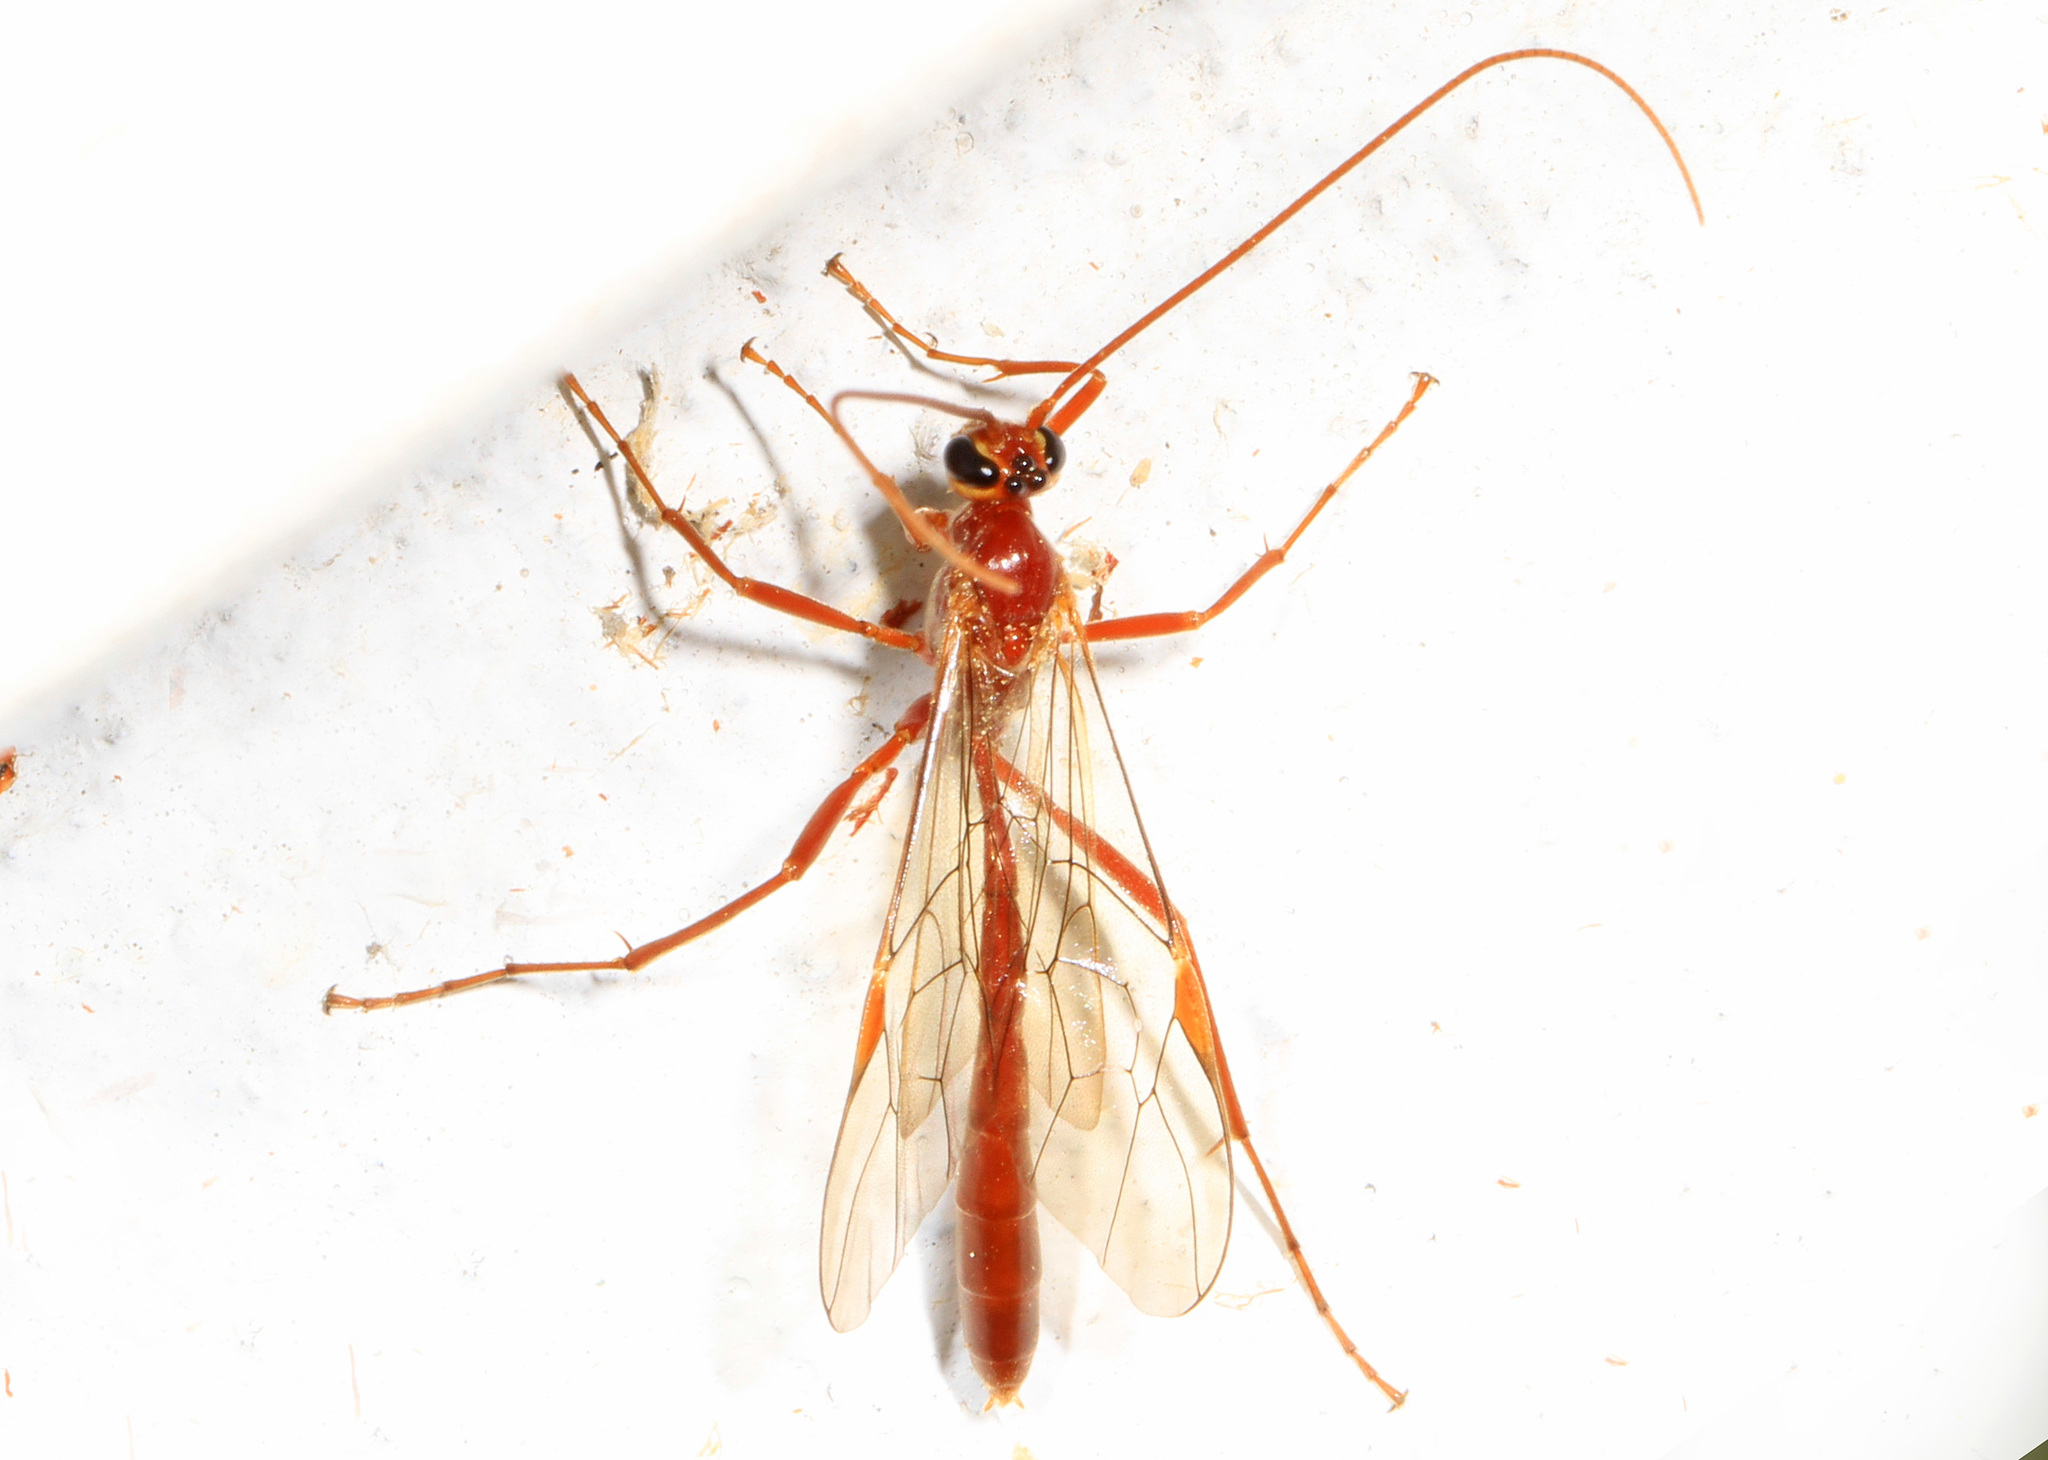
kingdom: Animalia
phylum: Arthropoda
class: Insecta
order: Hymenoptera
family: Ichneumonidae
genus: Ophion
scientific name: Ophion
